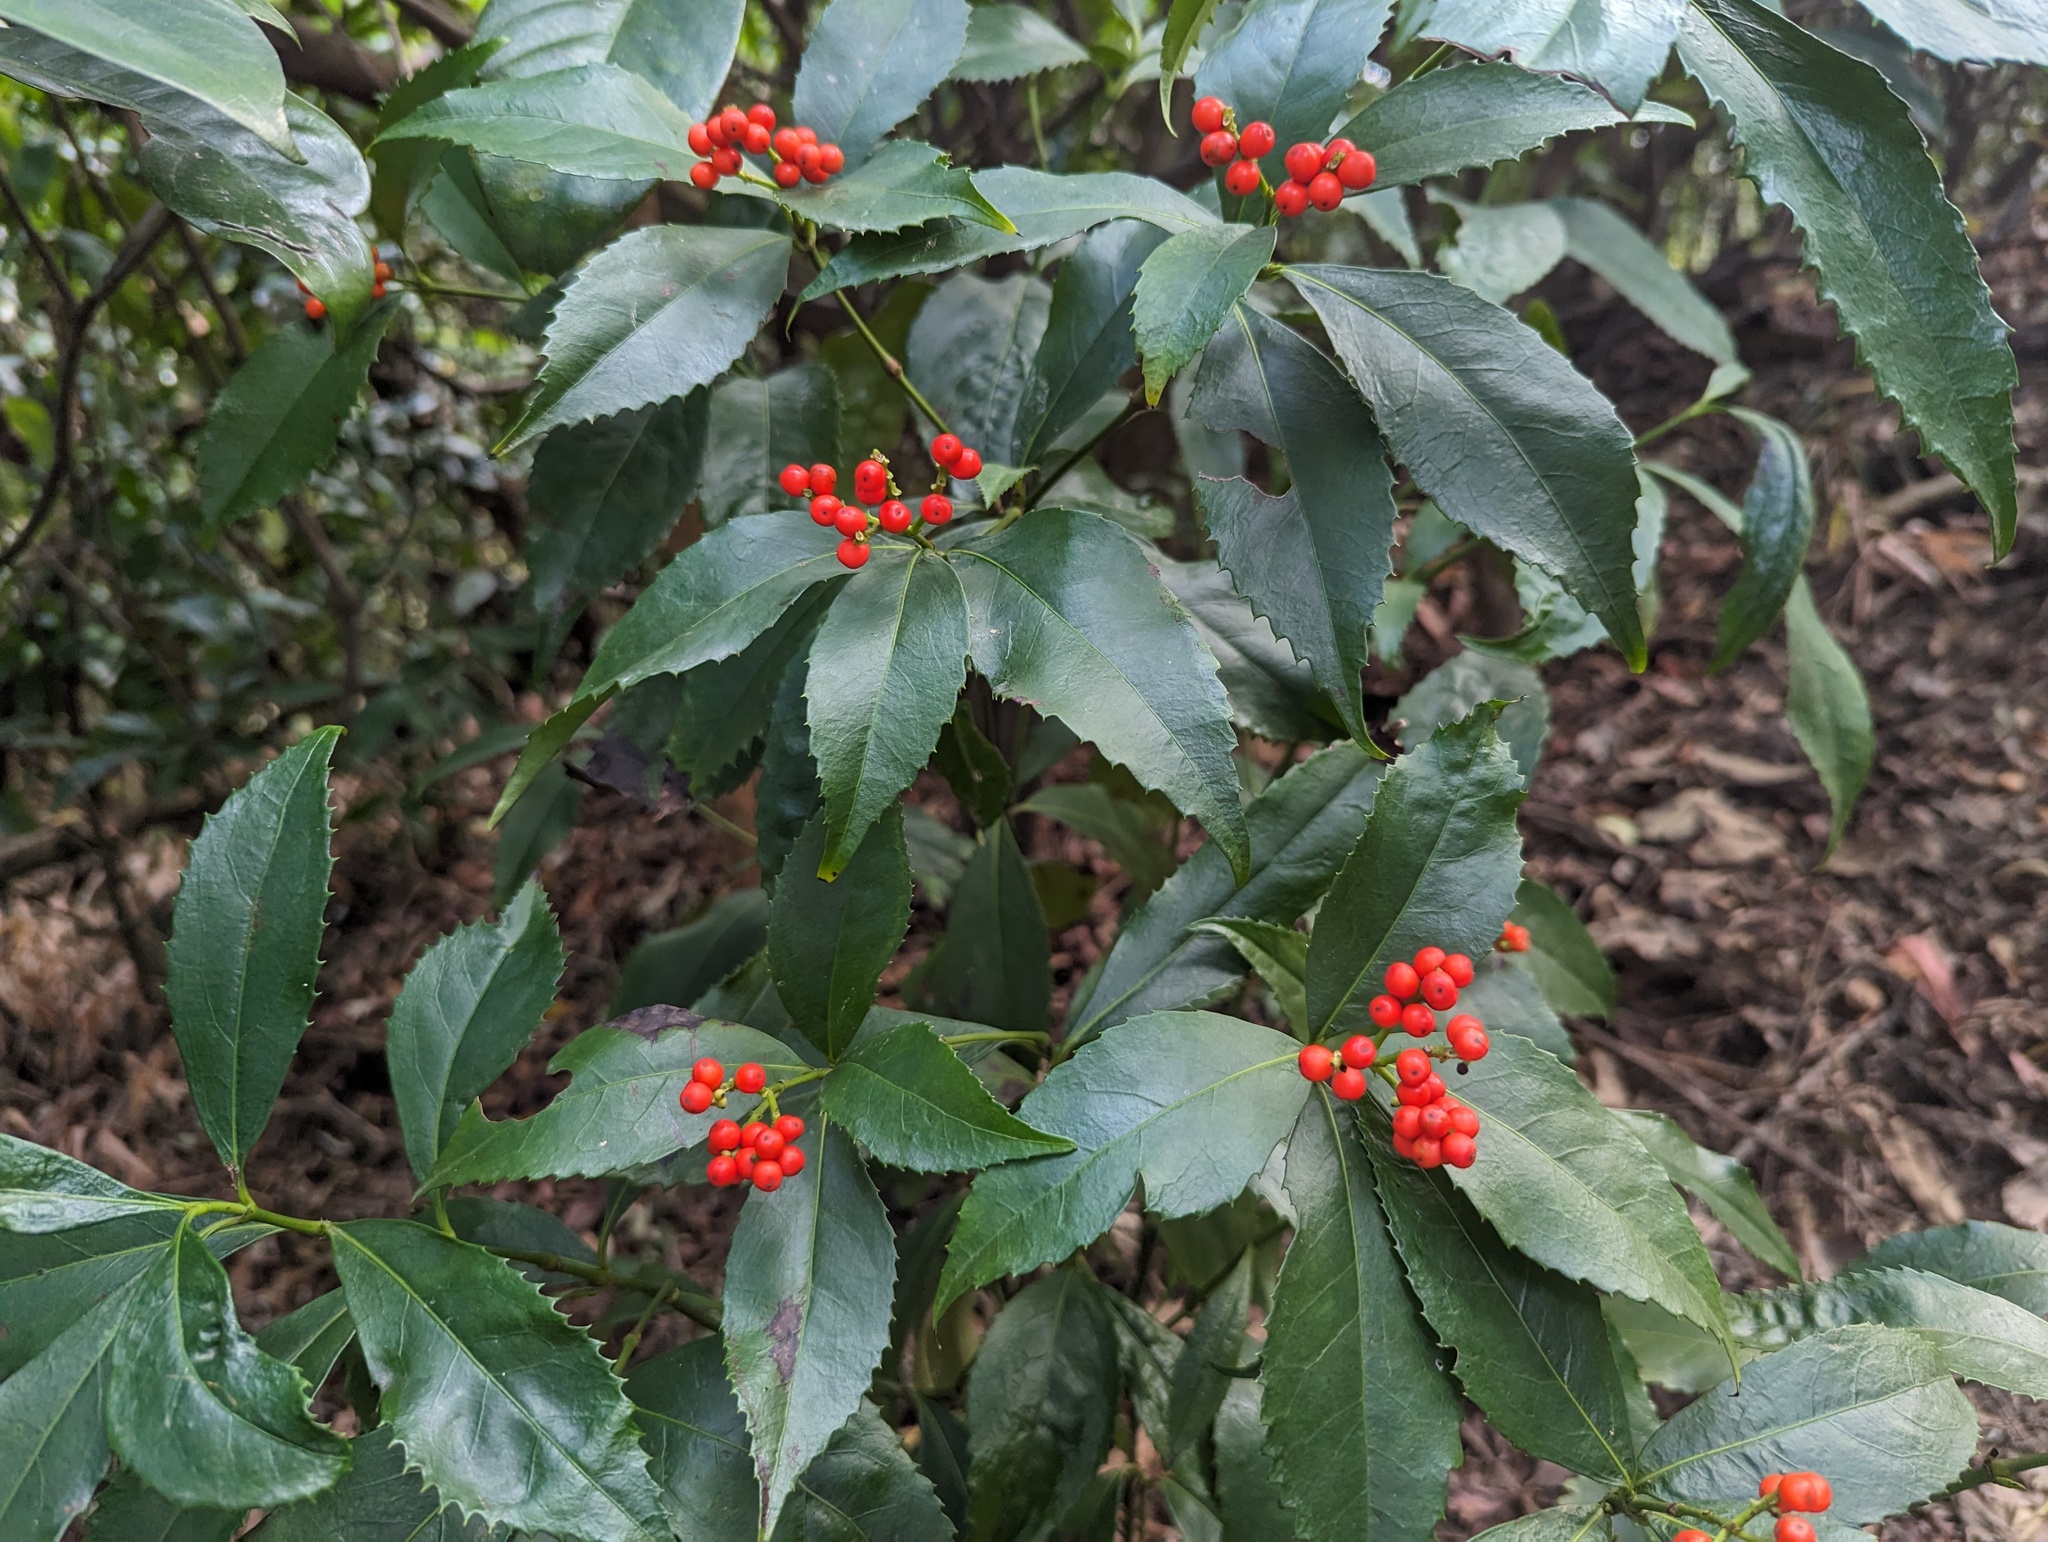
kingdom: Plantae
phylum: Tracheophyta
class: Magnoliopsida
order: Chloranthales
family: Chloranthaceae
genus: Sarcandra
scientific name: Sarcandra glabra
